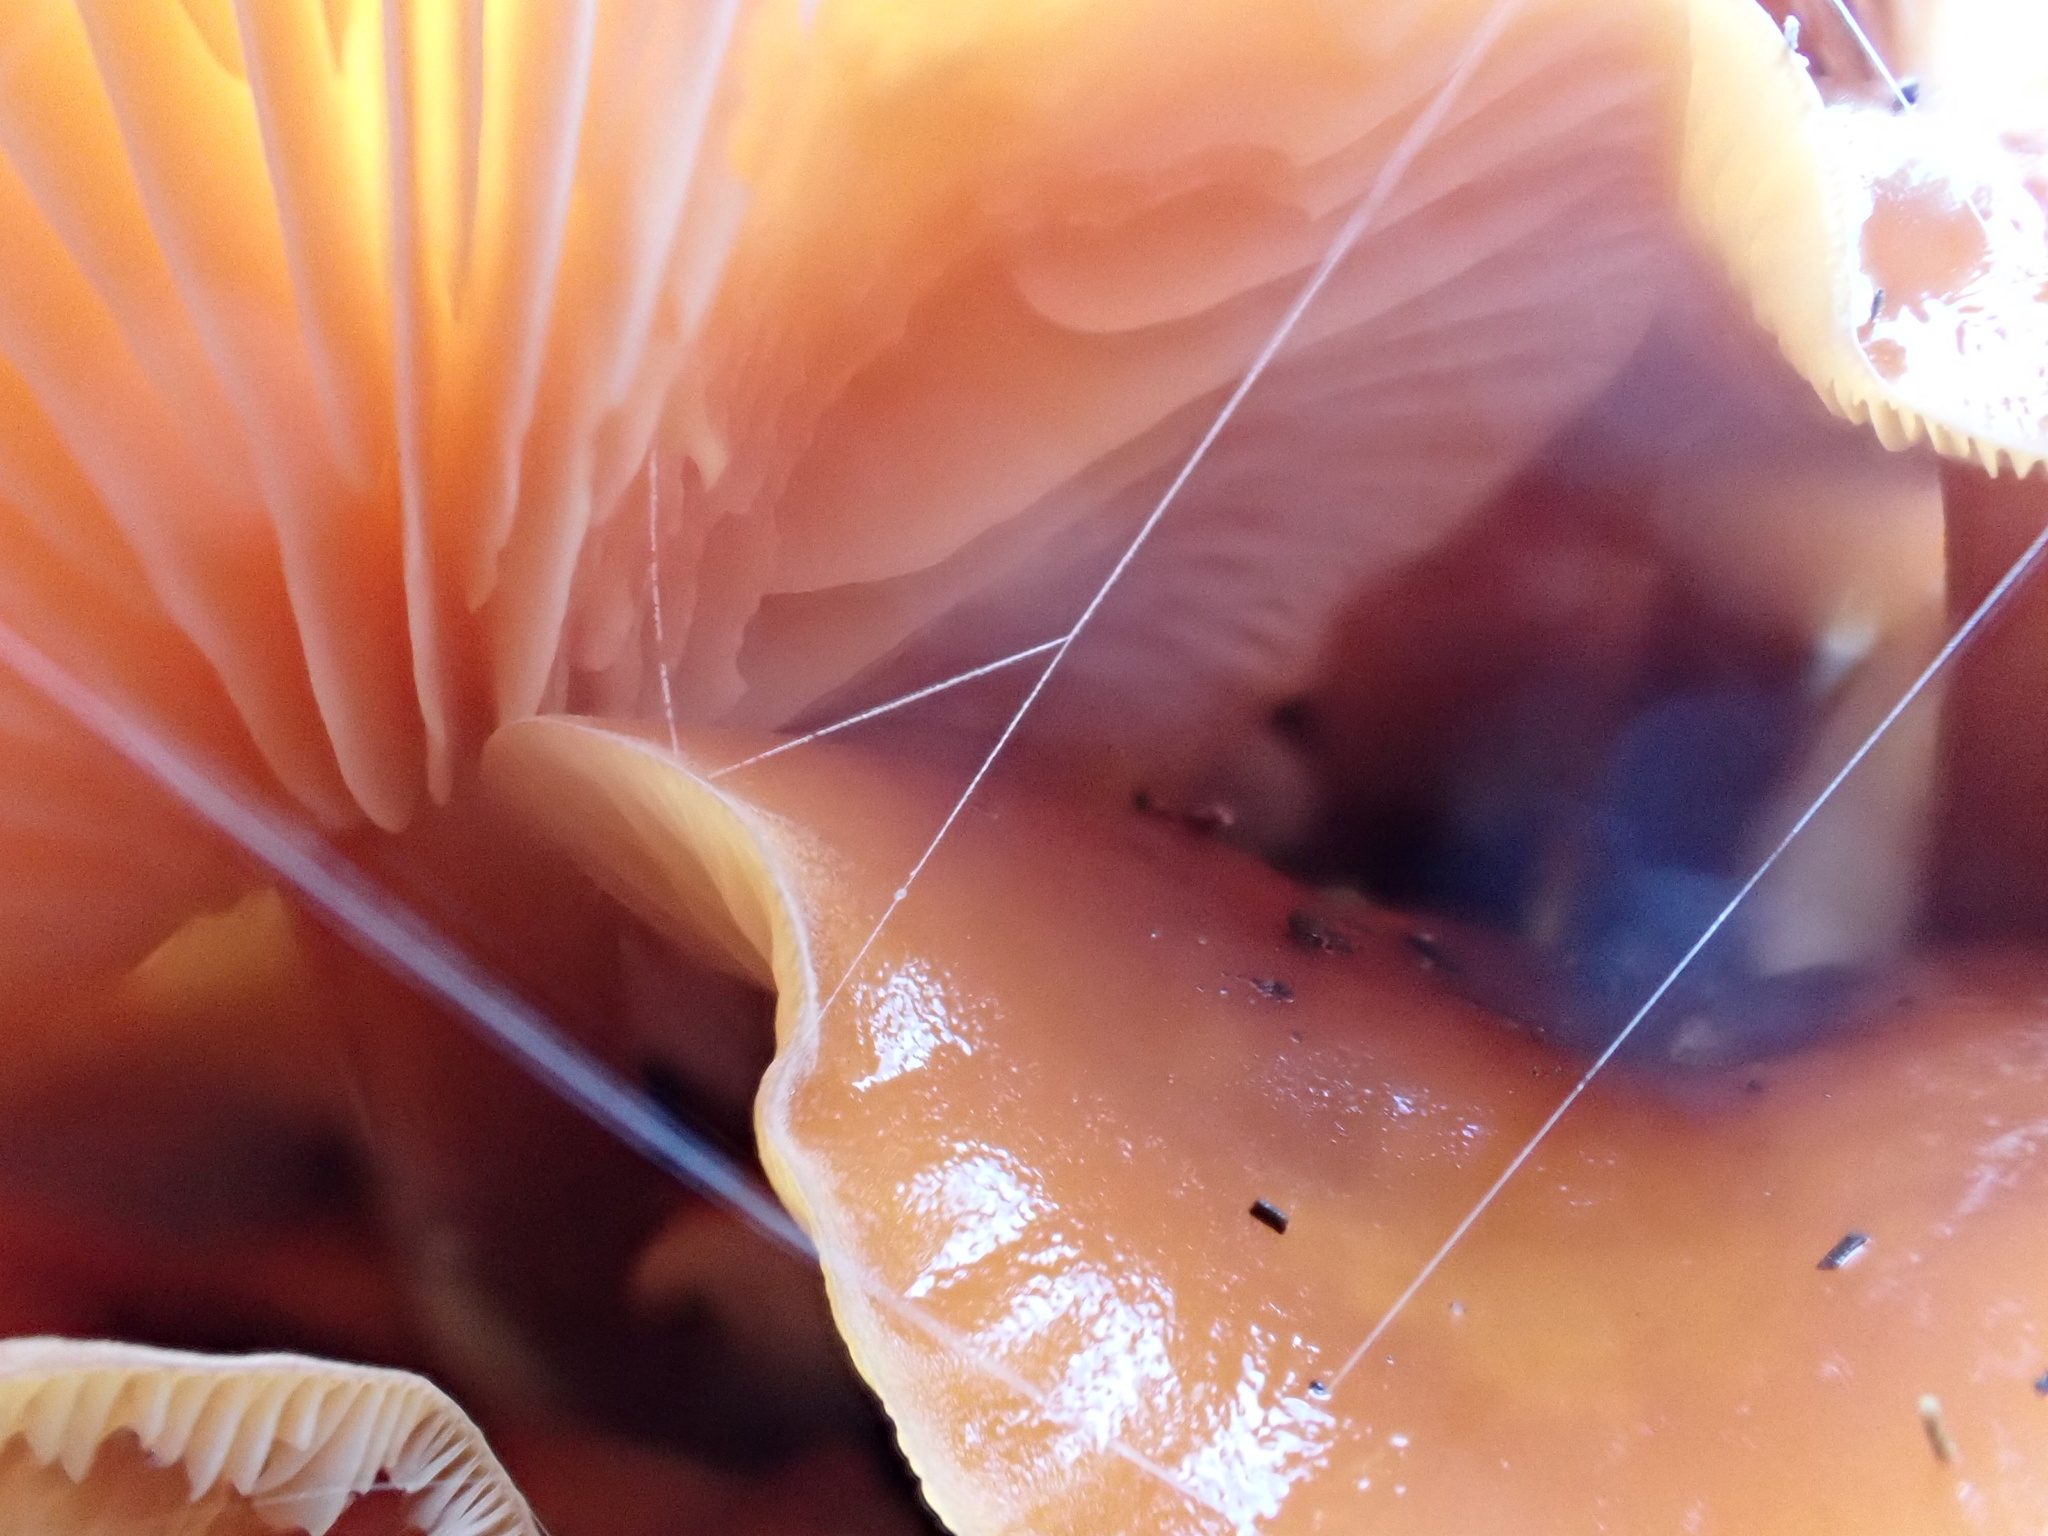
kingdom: Fungi
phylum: Basidiomycota
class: Agaricomycetes
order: Agaricales
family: Physalacriaceae
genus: Flammulina
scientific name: Flammulina
